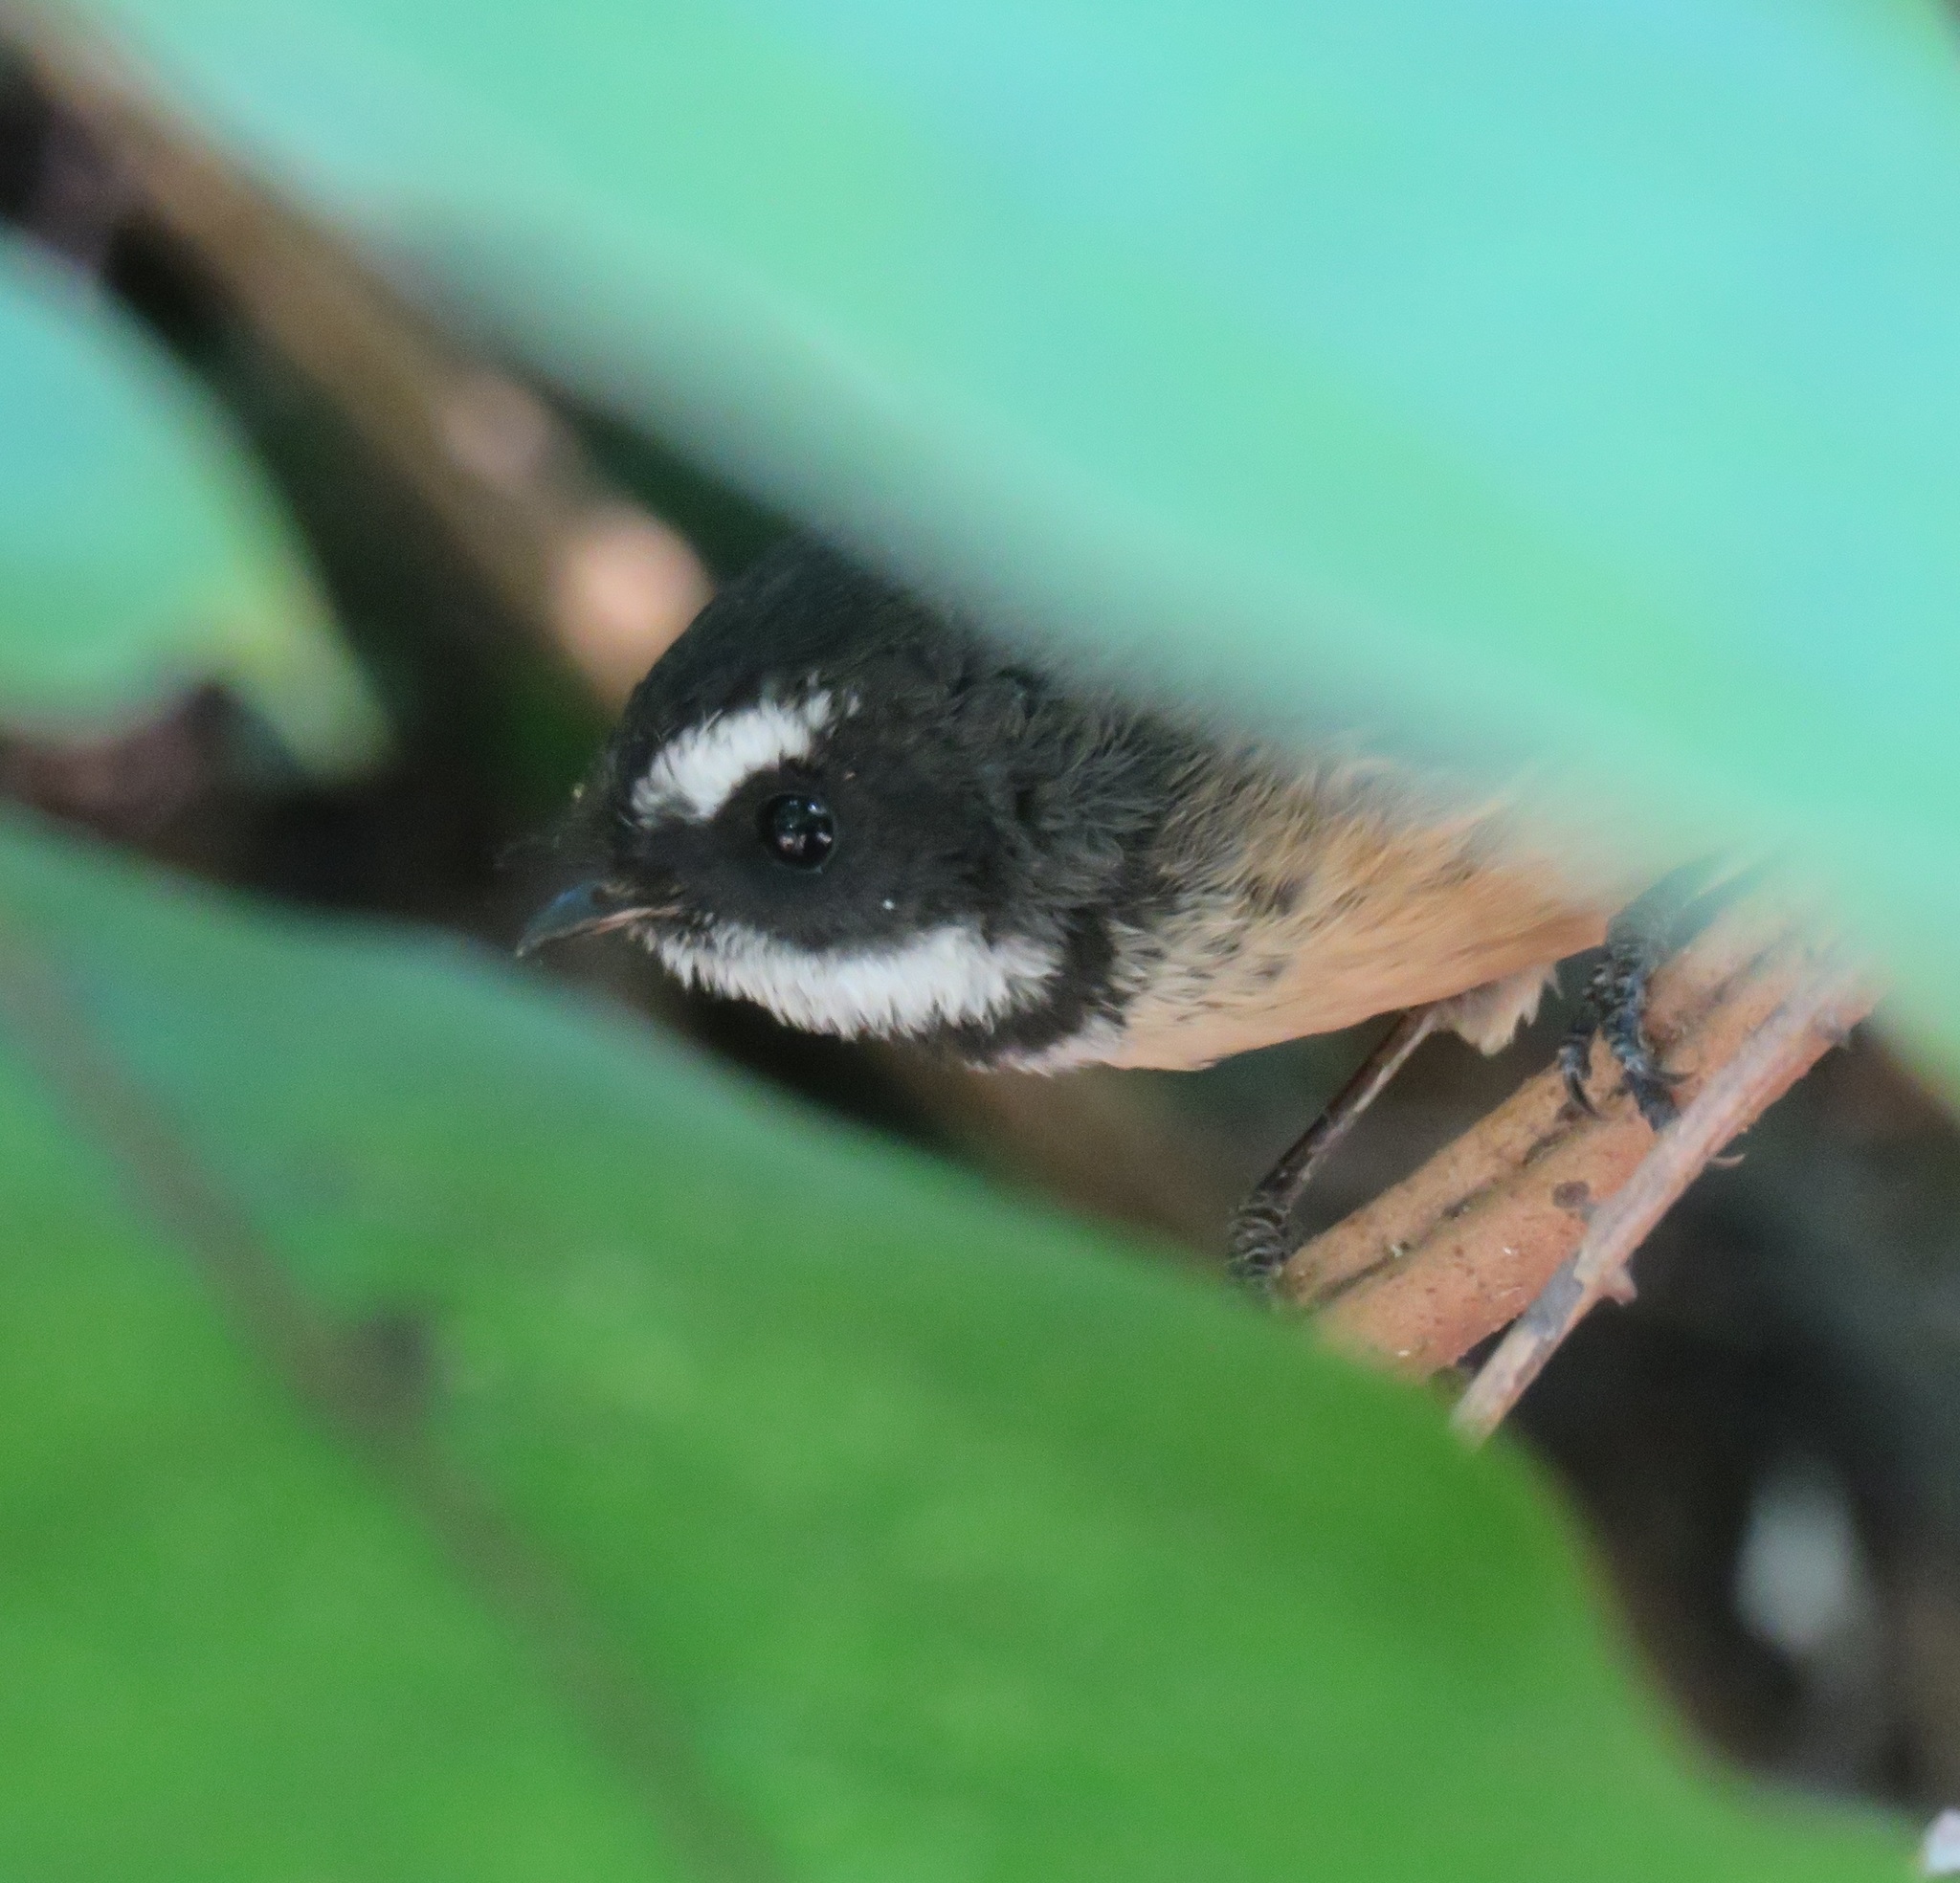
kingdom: Animalia
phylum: Chordata
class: Aves
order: Passeriformes
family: Rhipiduridae
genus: Rhipidura
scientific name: Rhipidura fuliginosa
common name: New zealand fantail
